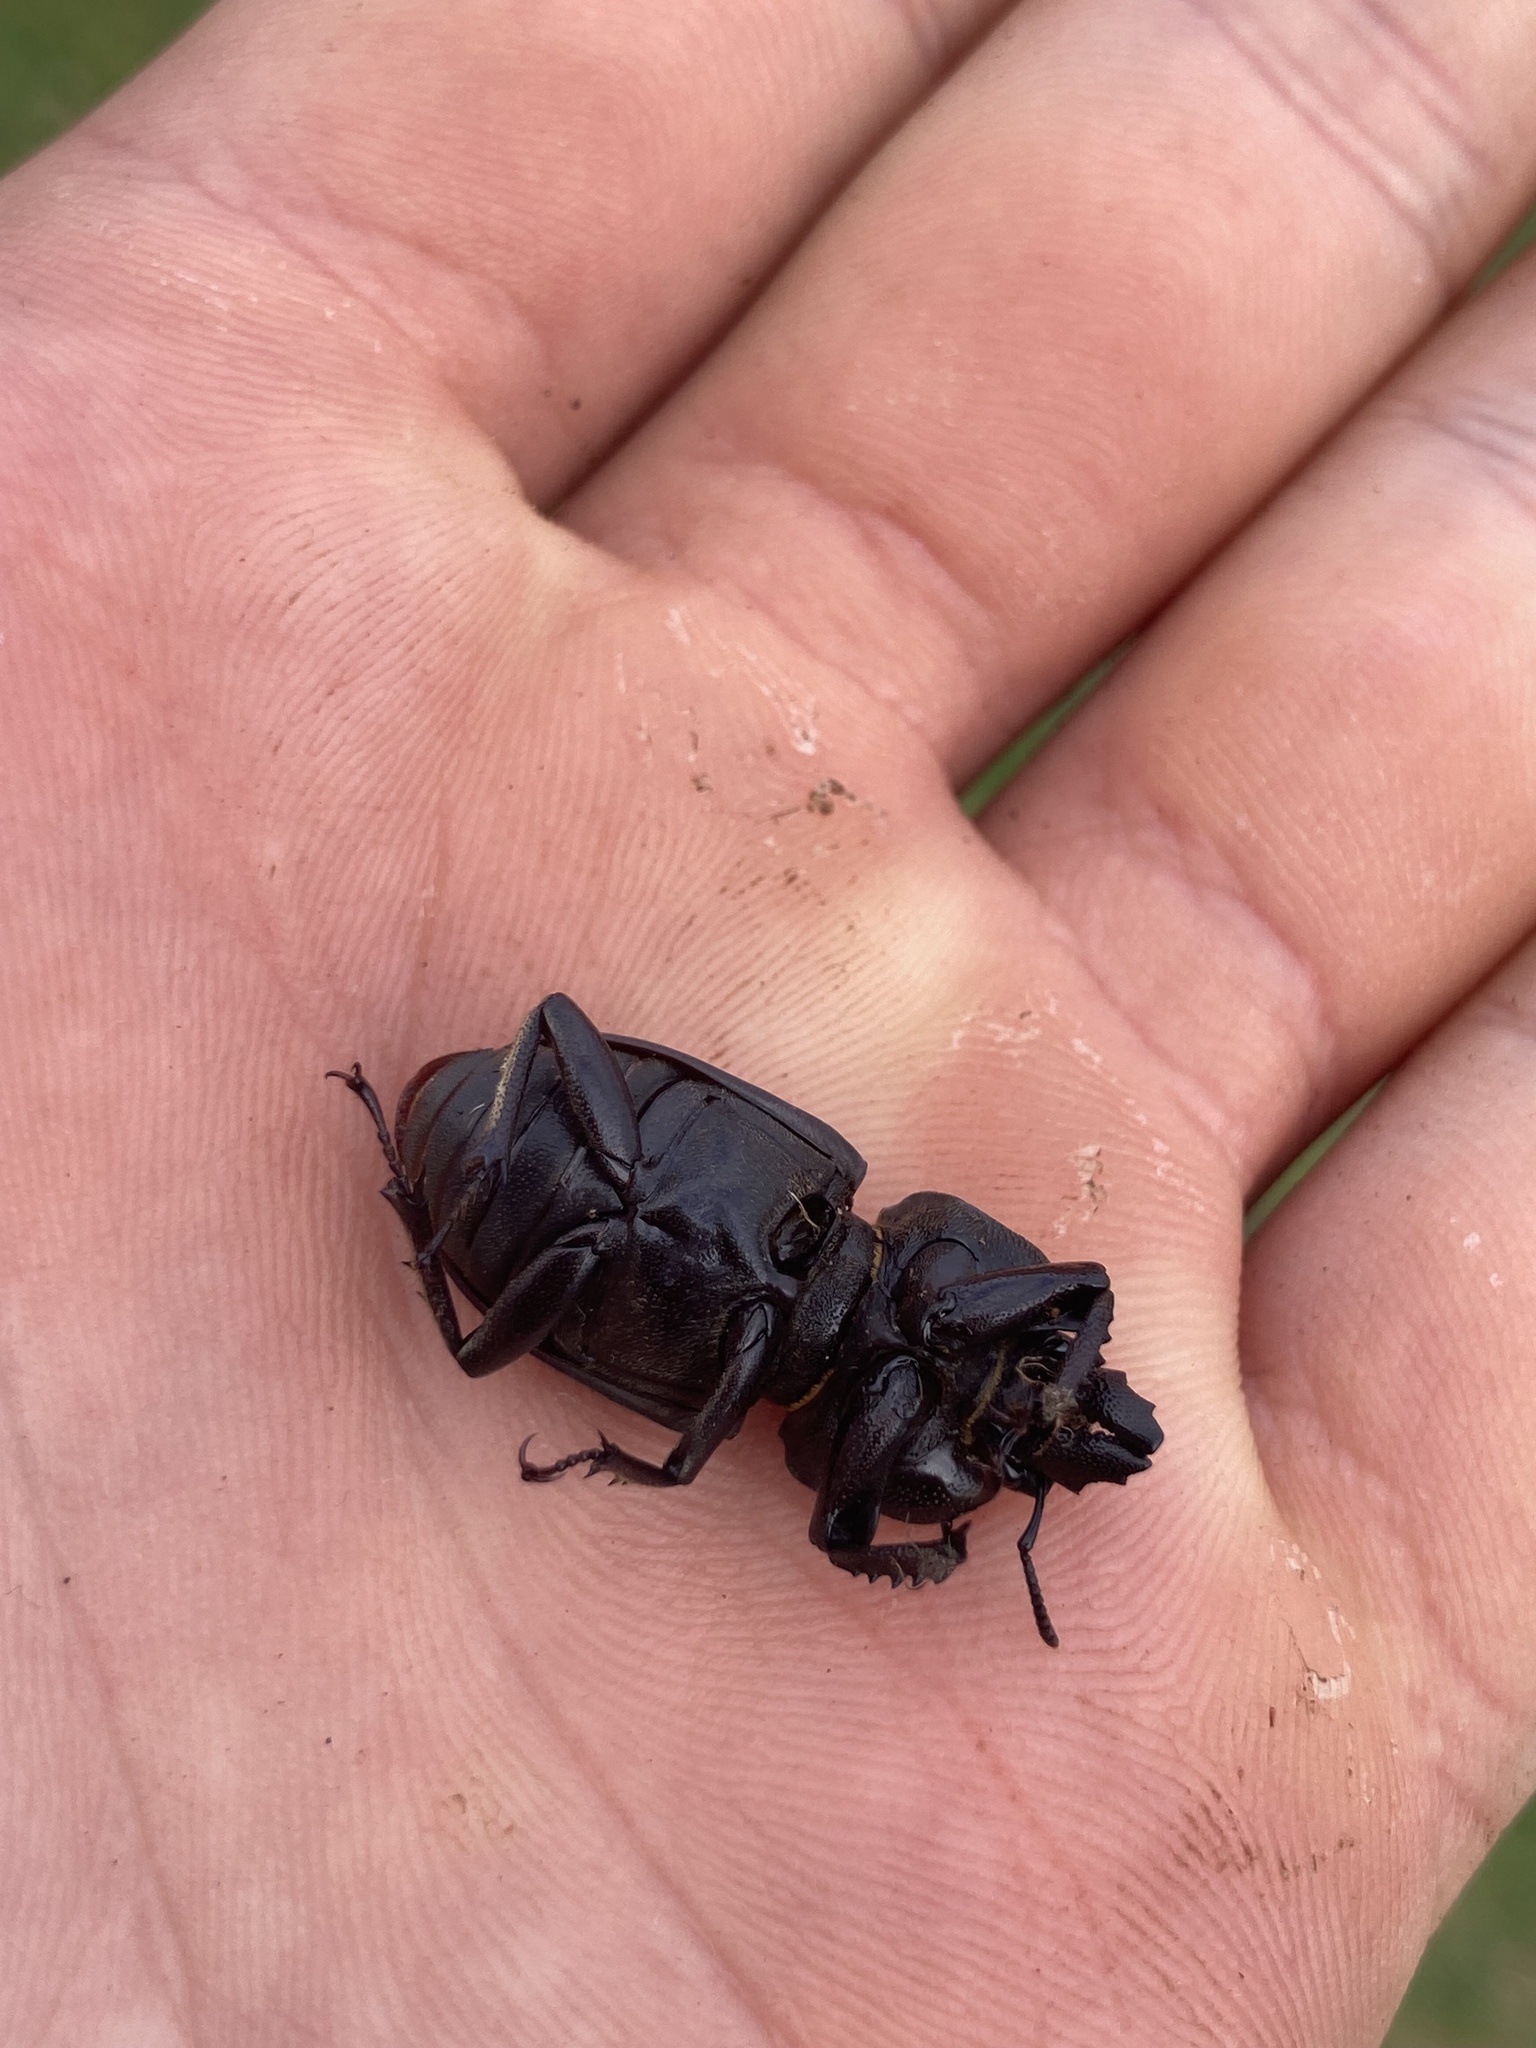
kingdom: Animalia
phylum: Arthropoda
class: Insecta
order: Coleoptera
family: Lucanidae
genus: Ryssonotus
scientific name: Ryssonotus nebulosus
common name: Brown stag beetle
